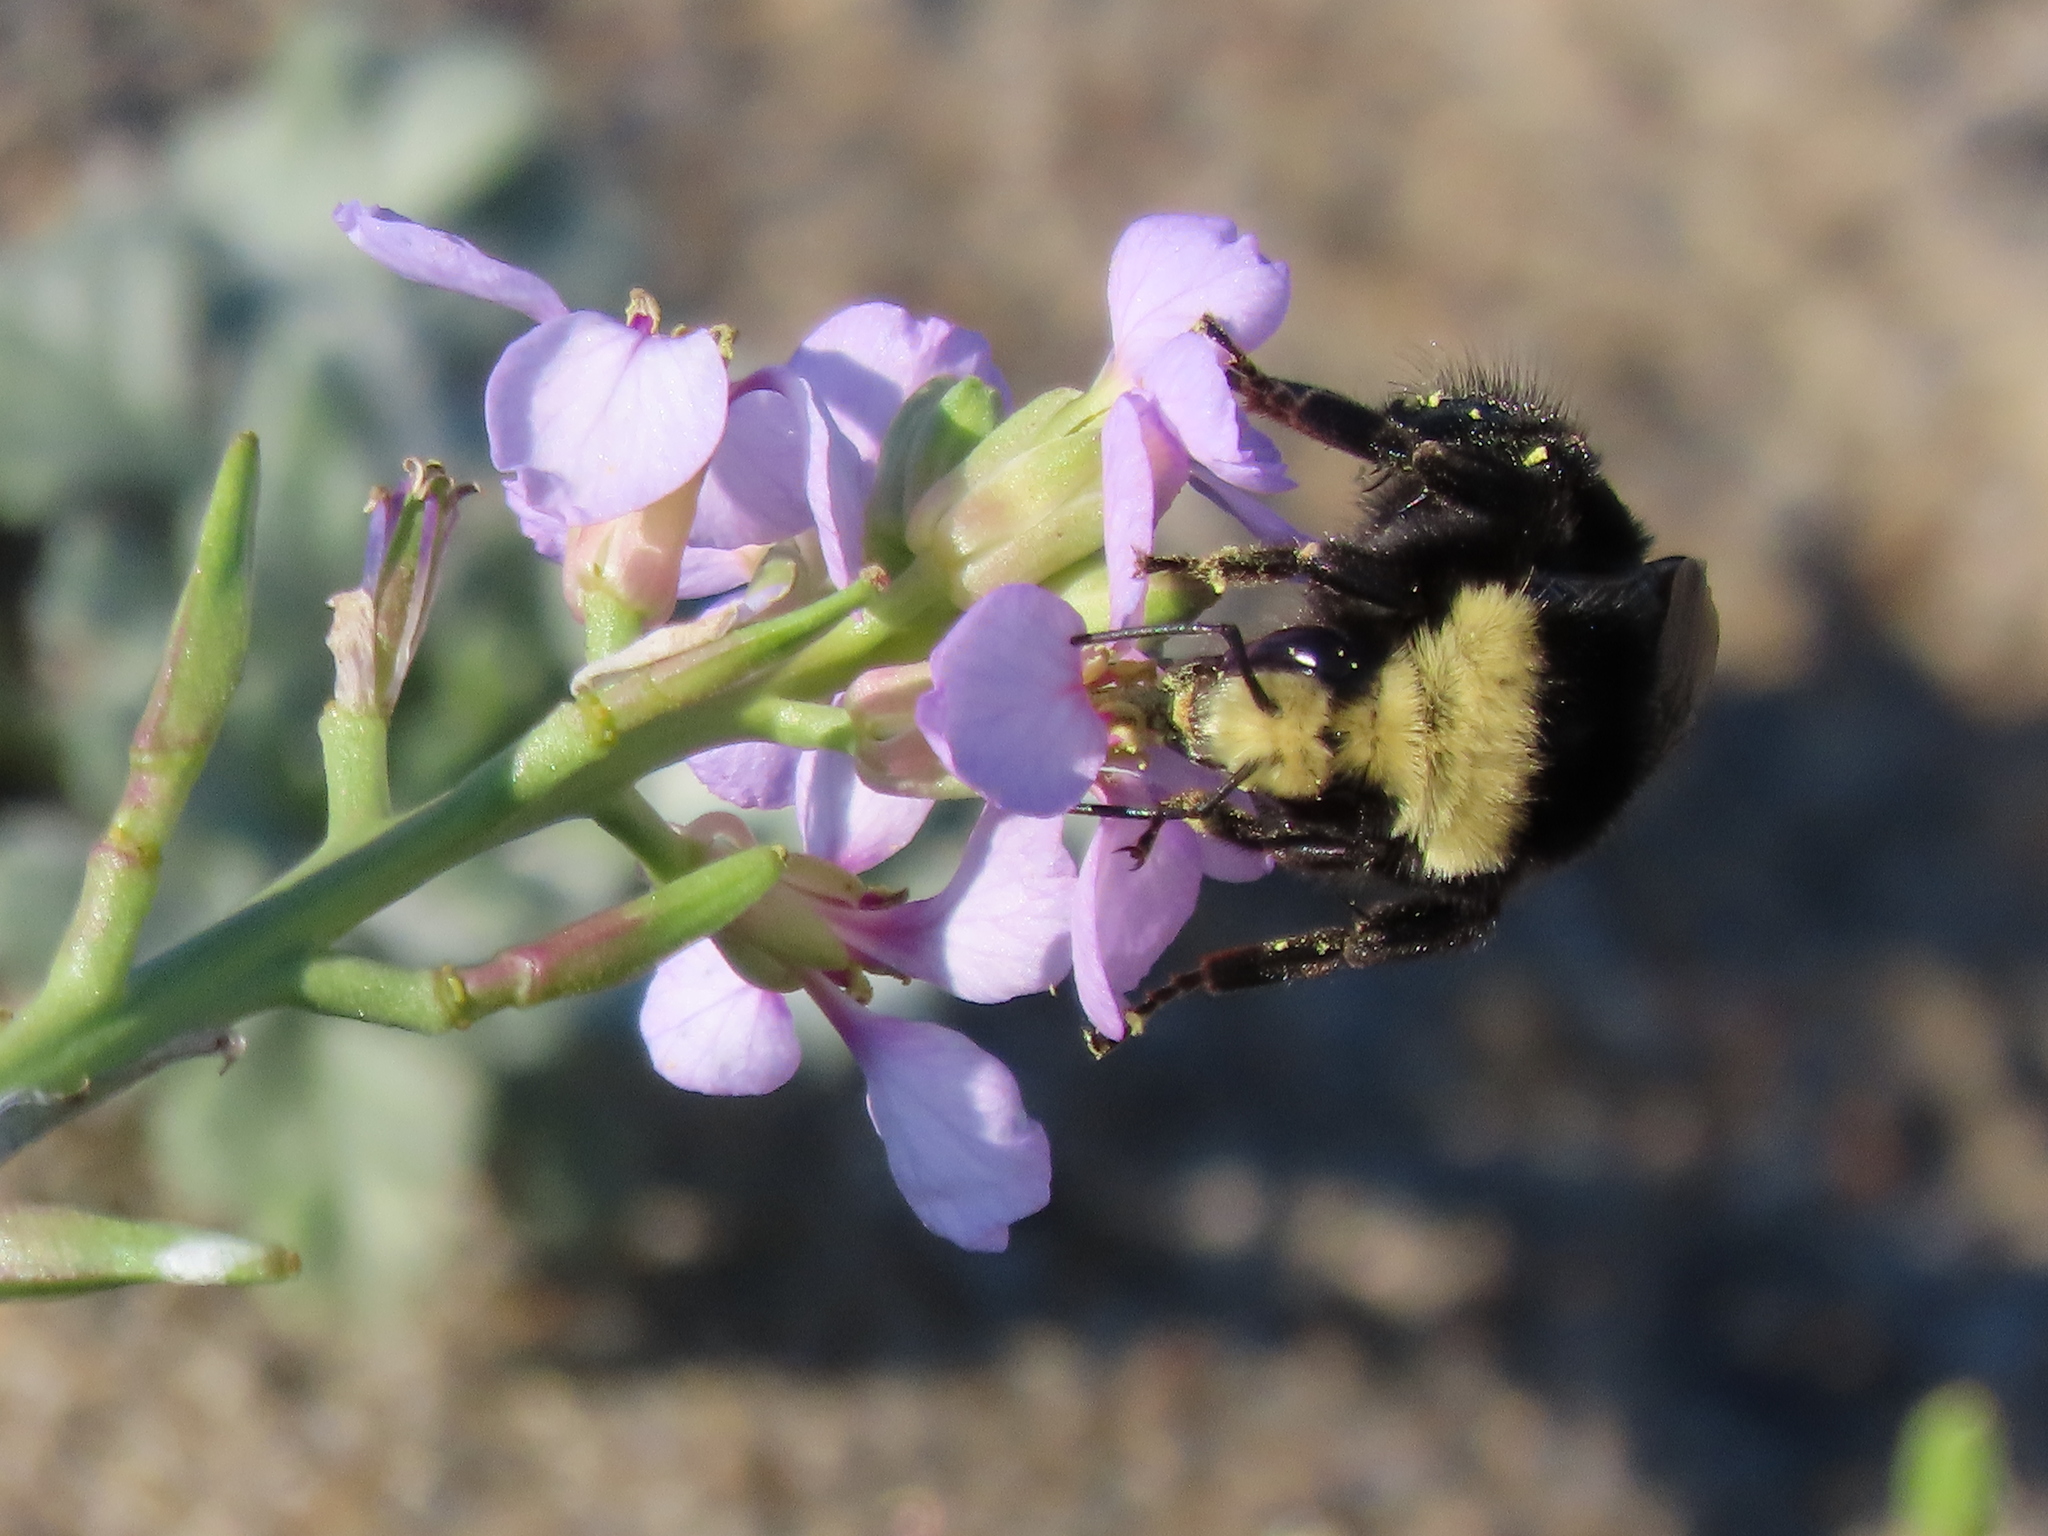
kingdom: Plantae
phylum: Tracheophyta
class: Magnoliopsida
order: Brassicales
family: Brassicaceae
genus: Cakile
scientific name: Cakile maritima
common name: Sea rocket
